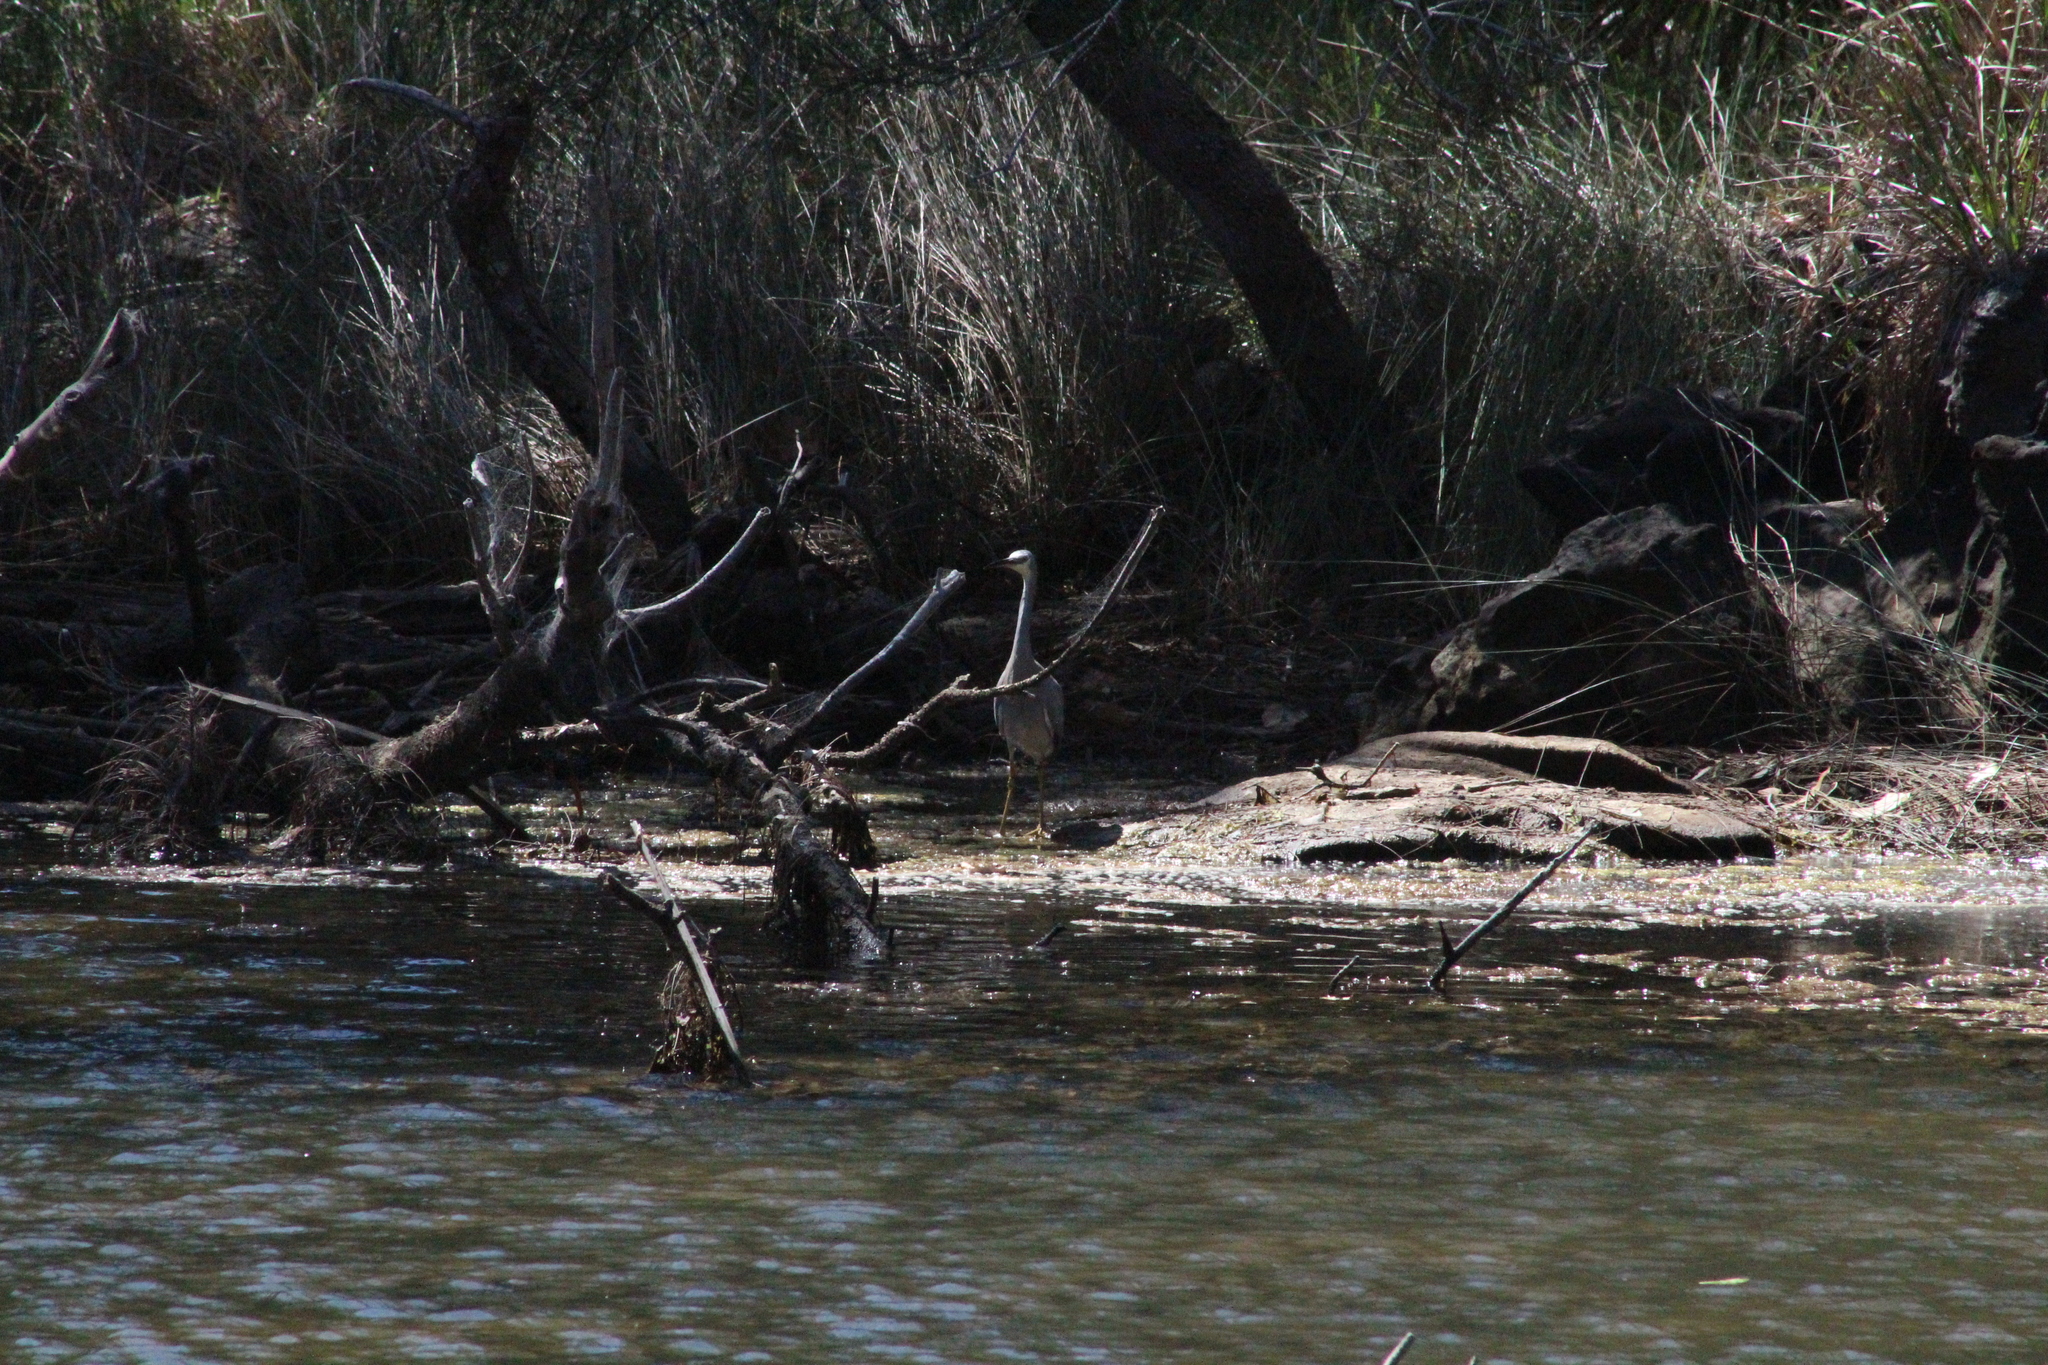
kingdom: Animalia
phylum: Chordata
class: Aves
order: Pelecaniformes
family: Ardeidae
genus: Egretta
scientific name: Egretta novaehollandiae
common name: White-faced heron
